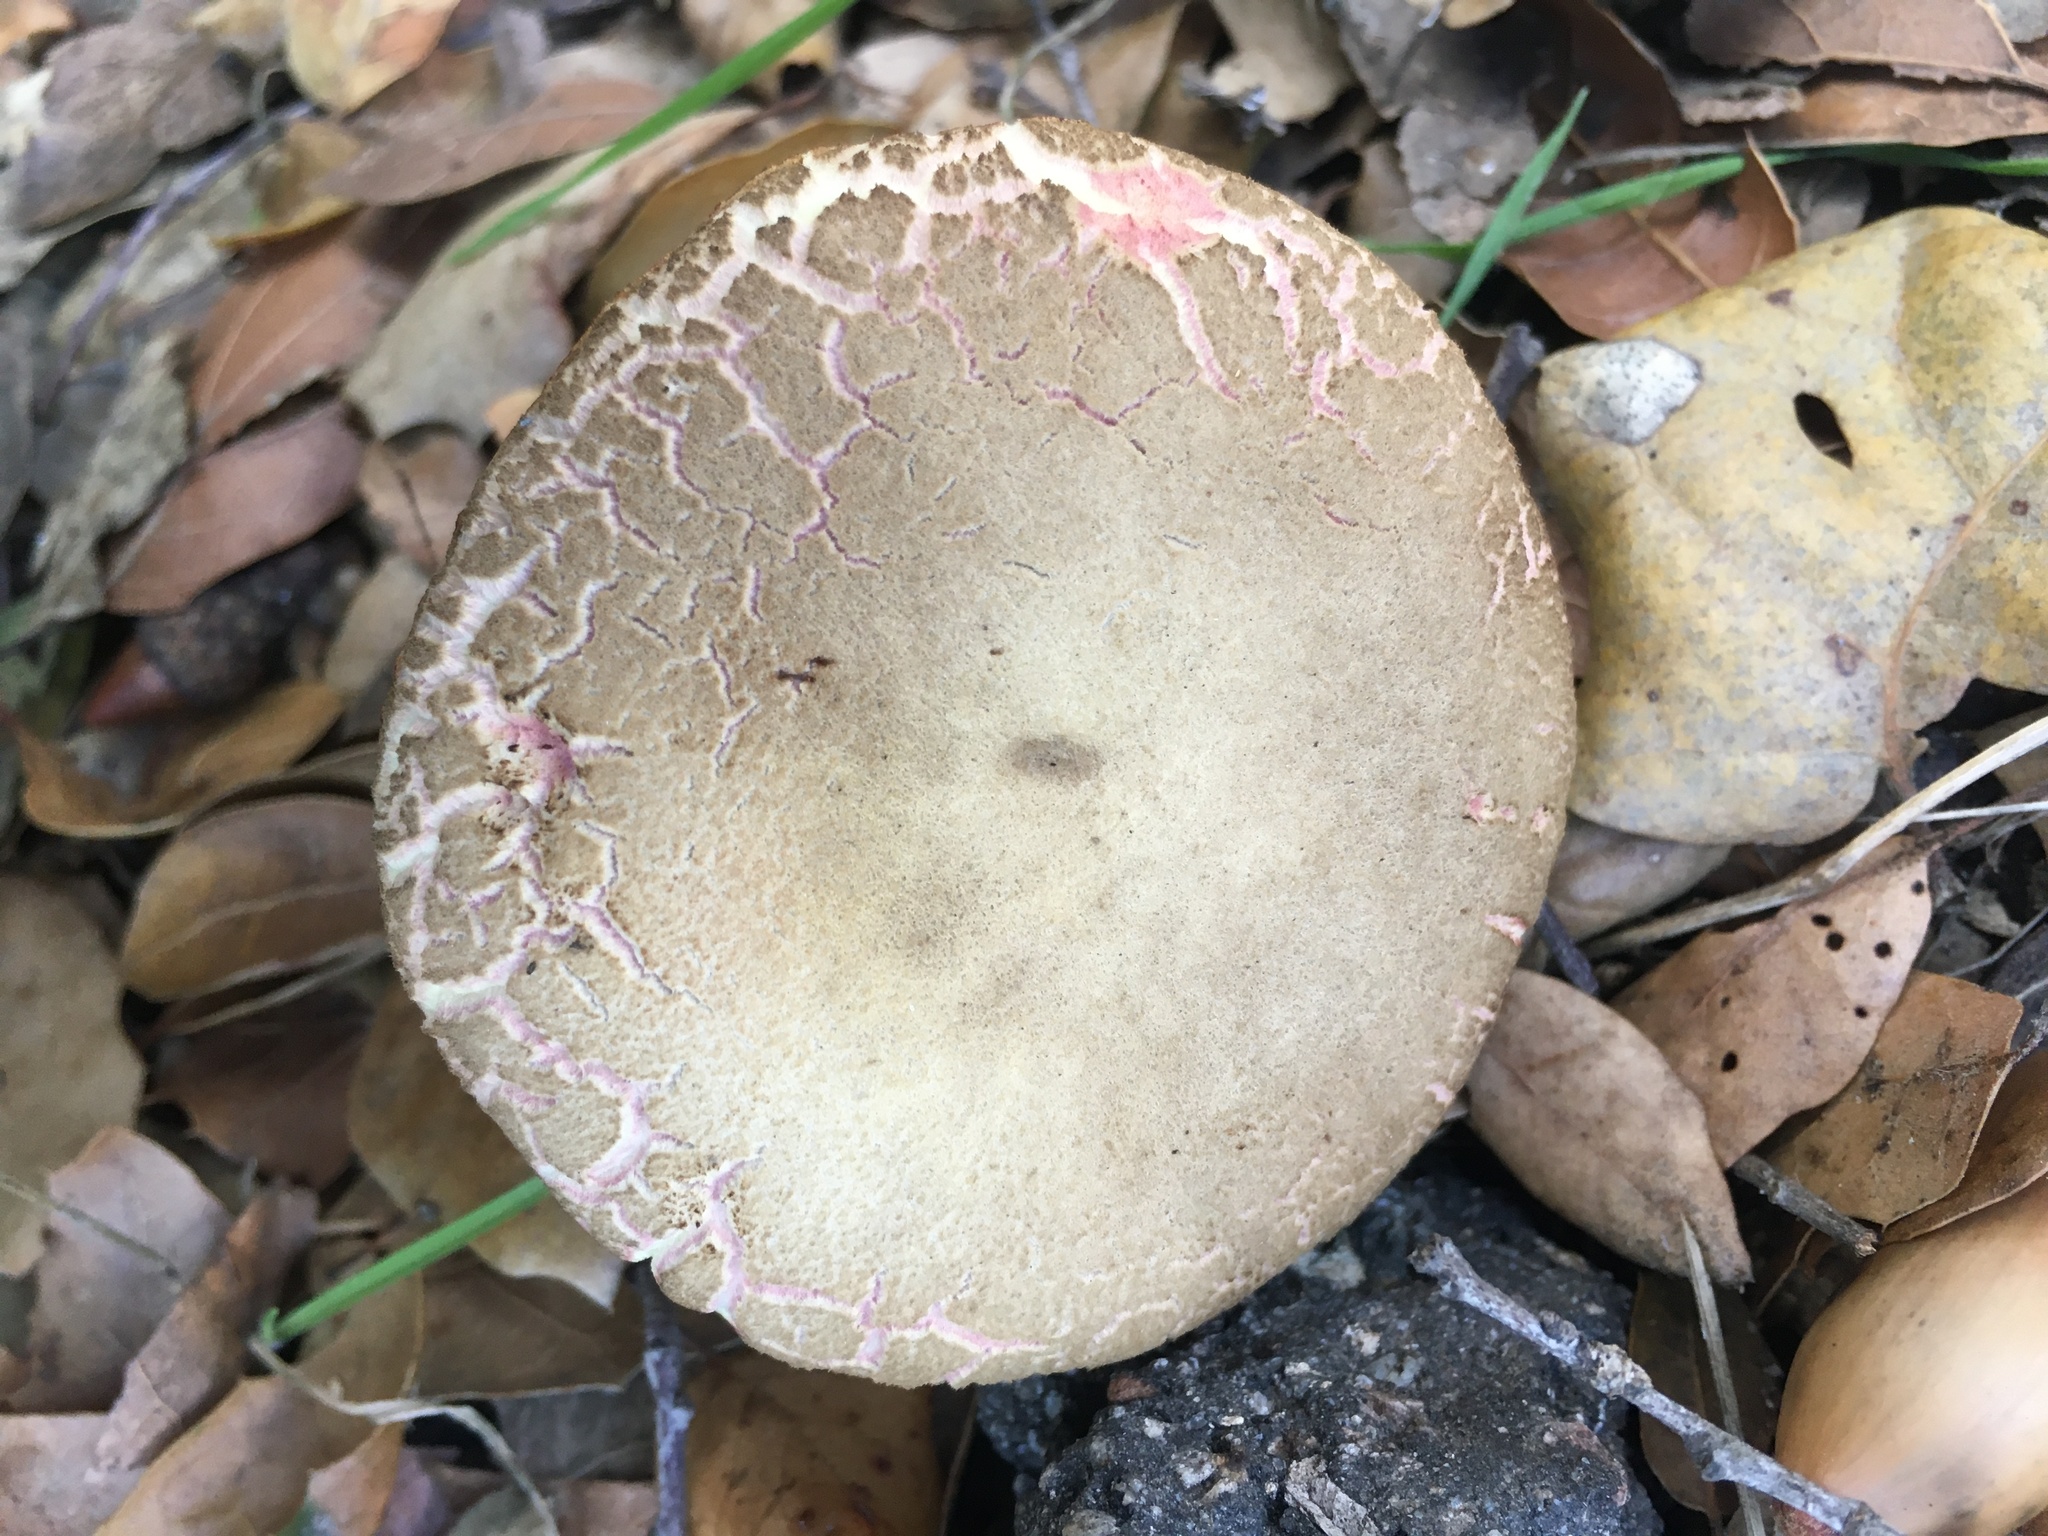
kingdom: Fungi
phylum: Basidiomycota
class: Agaricomycetes
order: Boletales
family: Boletaceae
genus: Xerocomellus
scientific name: Xerocomellus dryophilus
